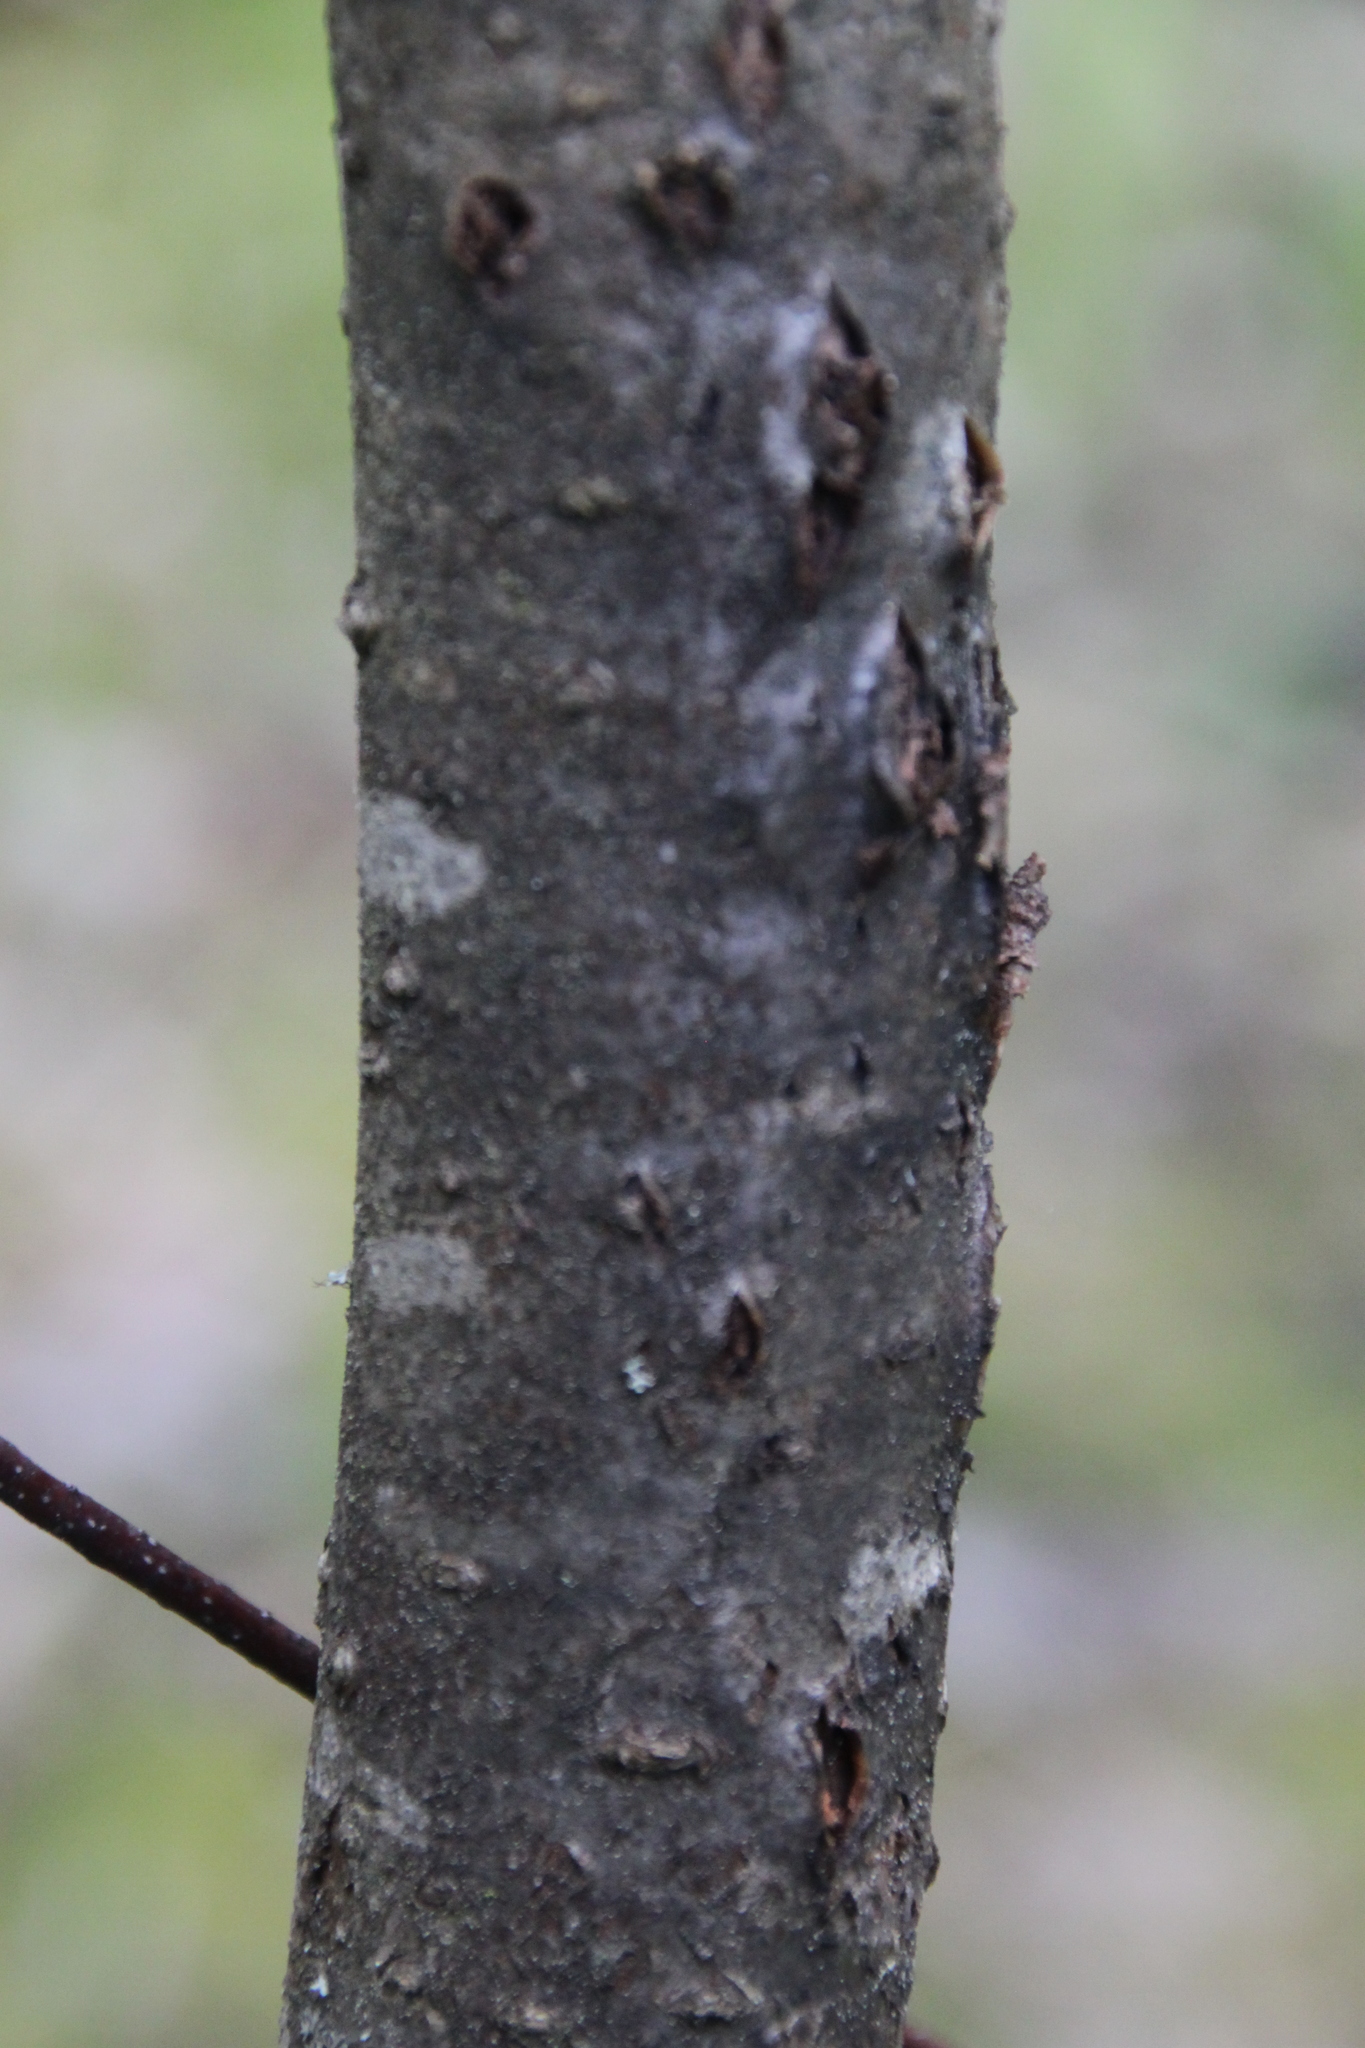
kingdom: Plantae
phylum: Tracheophyta
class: Magnoliopsida
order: Rosales
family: Rosaceae
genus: Sorbus
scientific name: Sorbus aucuparia
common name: Rowan
